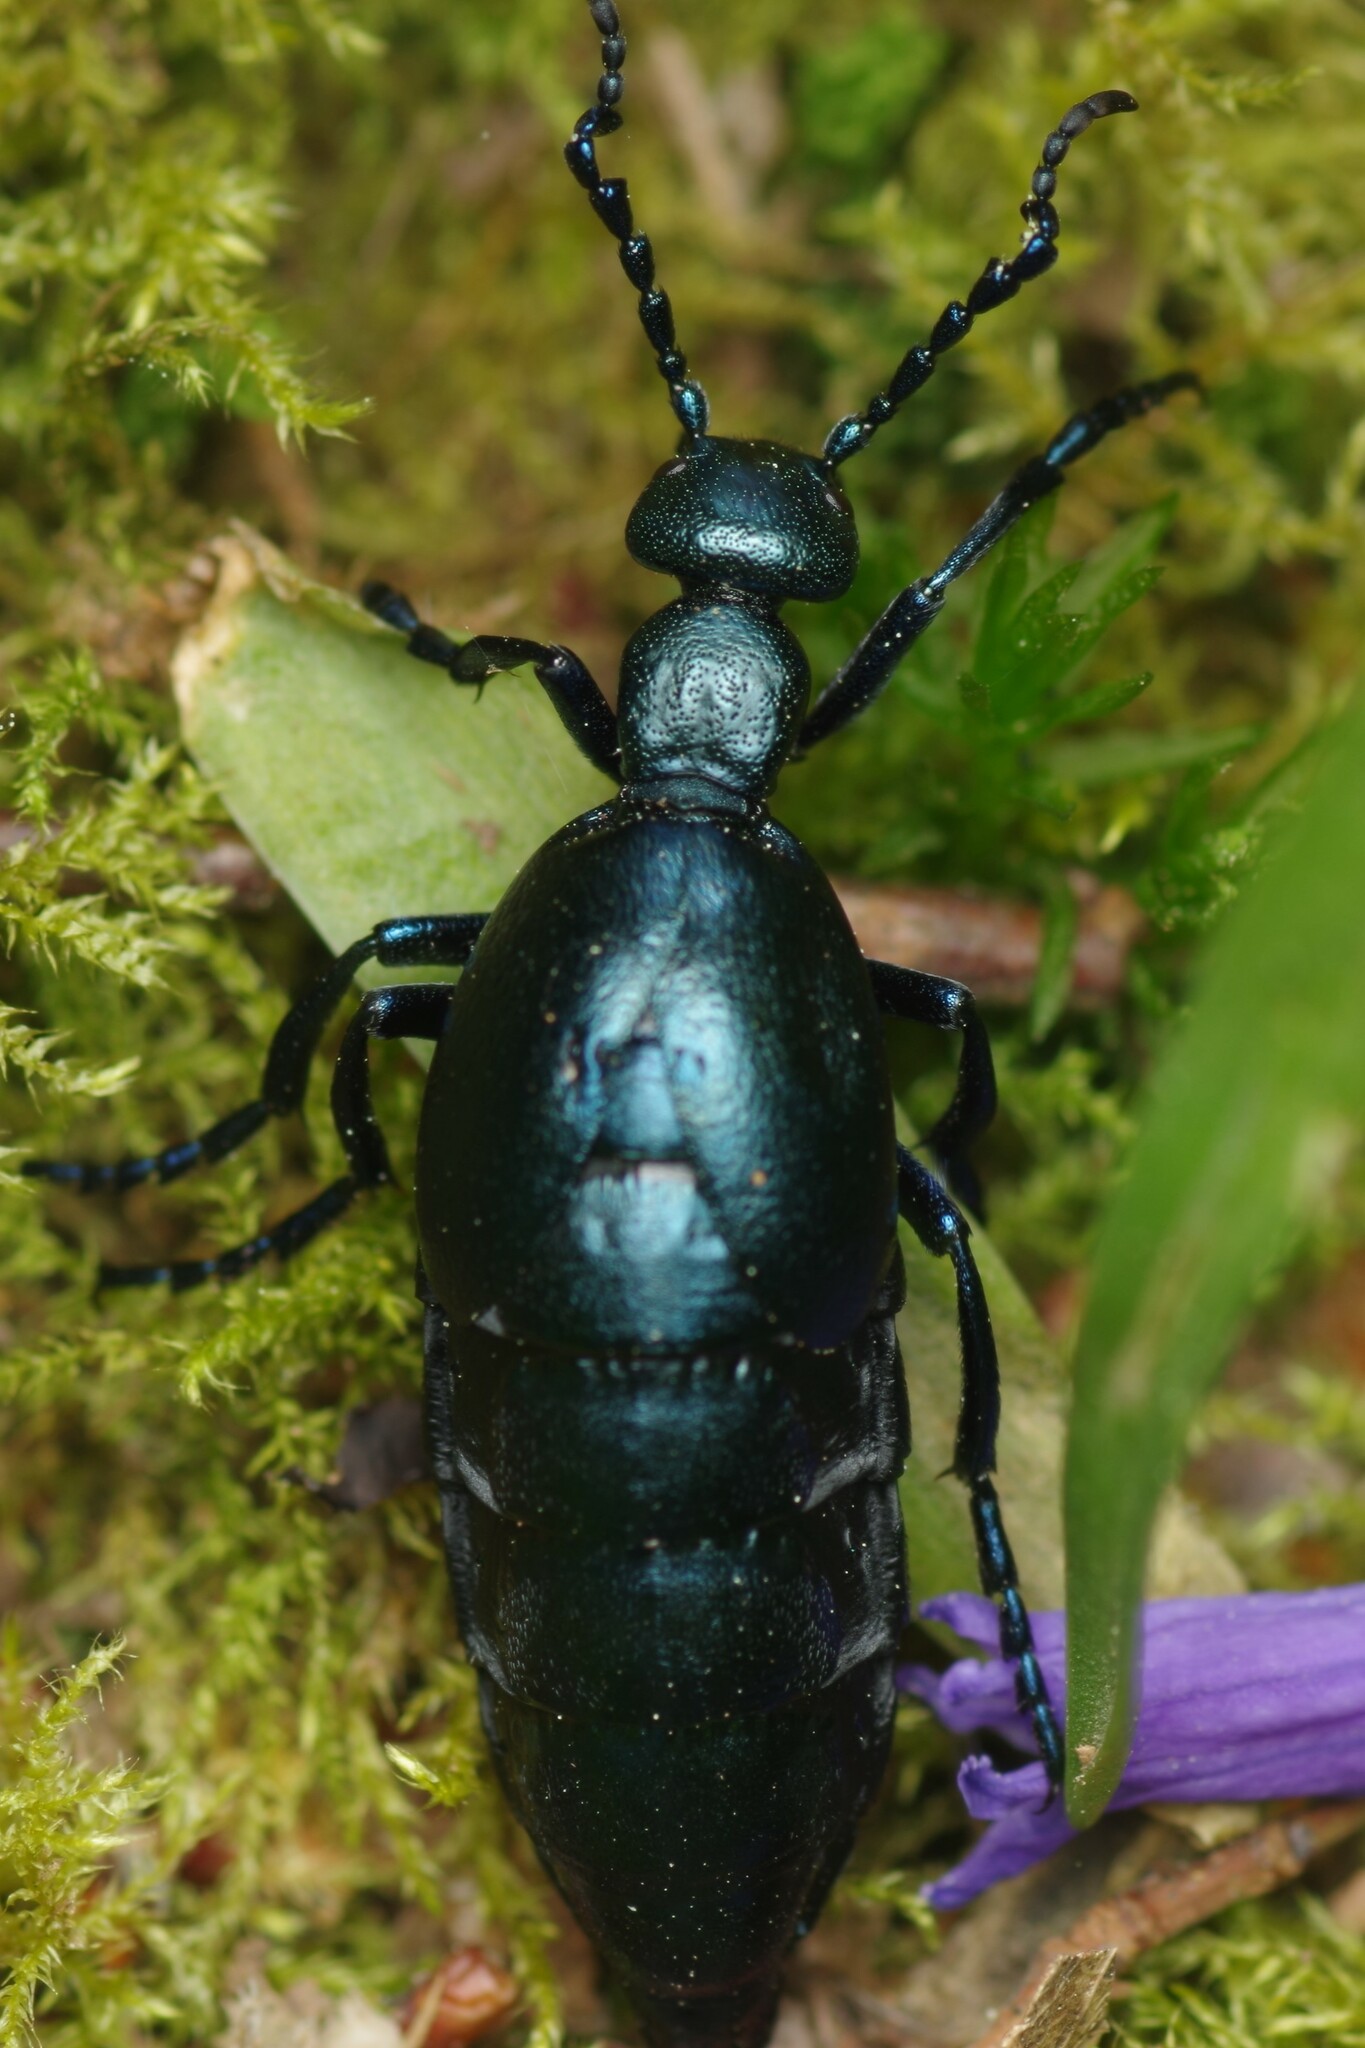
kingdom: Animalia
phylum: Arthropoda
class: Insecta
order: Coleoptera
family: Meloidae
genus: Meloe
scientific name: Meloe violaceus
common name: Violet oil-beetle
